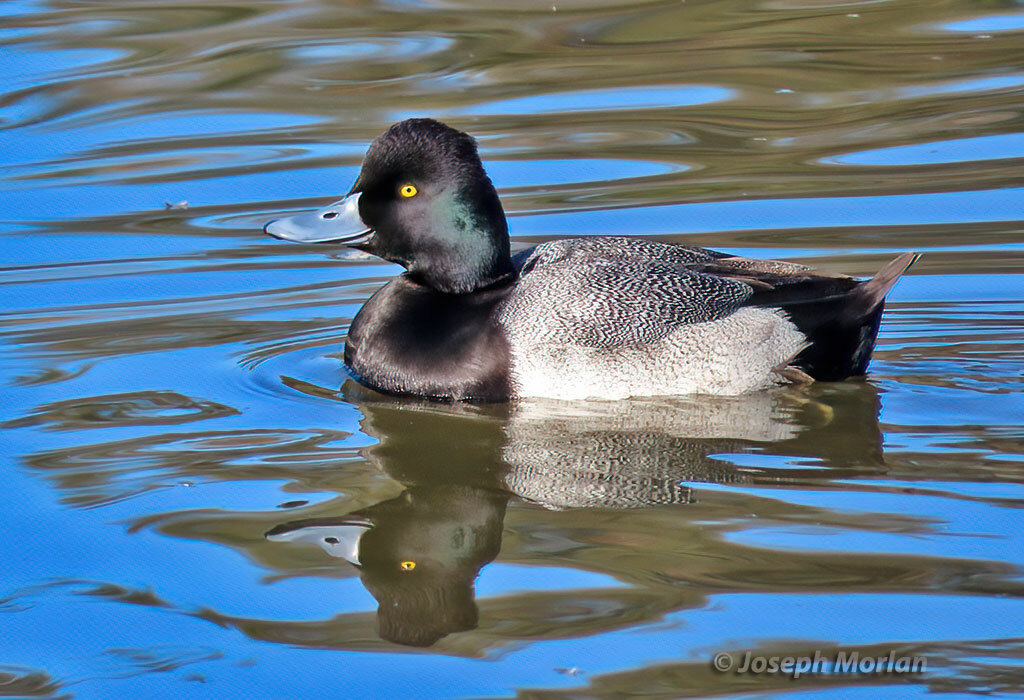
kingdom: Animalia
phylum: Chordata
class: Aves
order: Anseriformes
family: Anatidae
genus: Aythya
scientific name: Aythya affinis
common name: Lesser scaup
